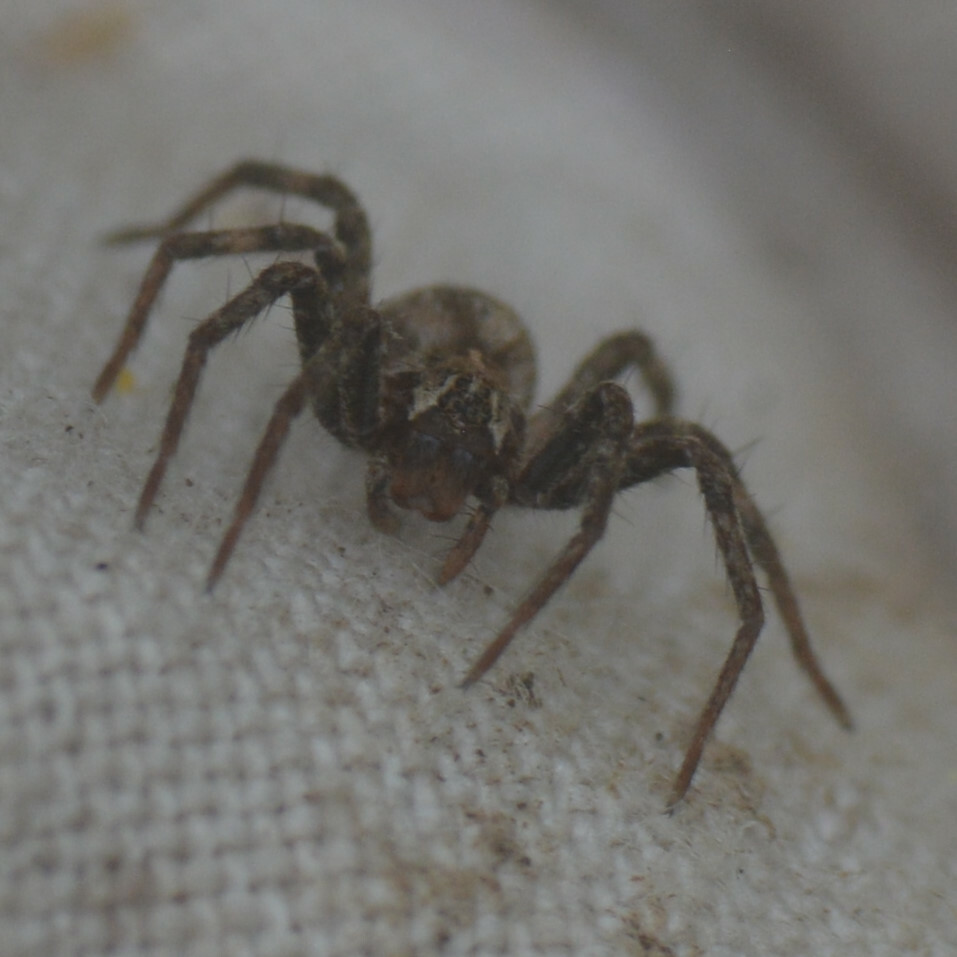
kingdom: Animalia
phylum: Arthropoda
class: Arachnida
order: Araneae
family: Pisauridae
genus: Pisaura
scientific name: Pisaura mirabilis
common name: Tent spider
